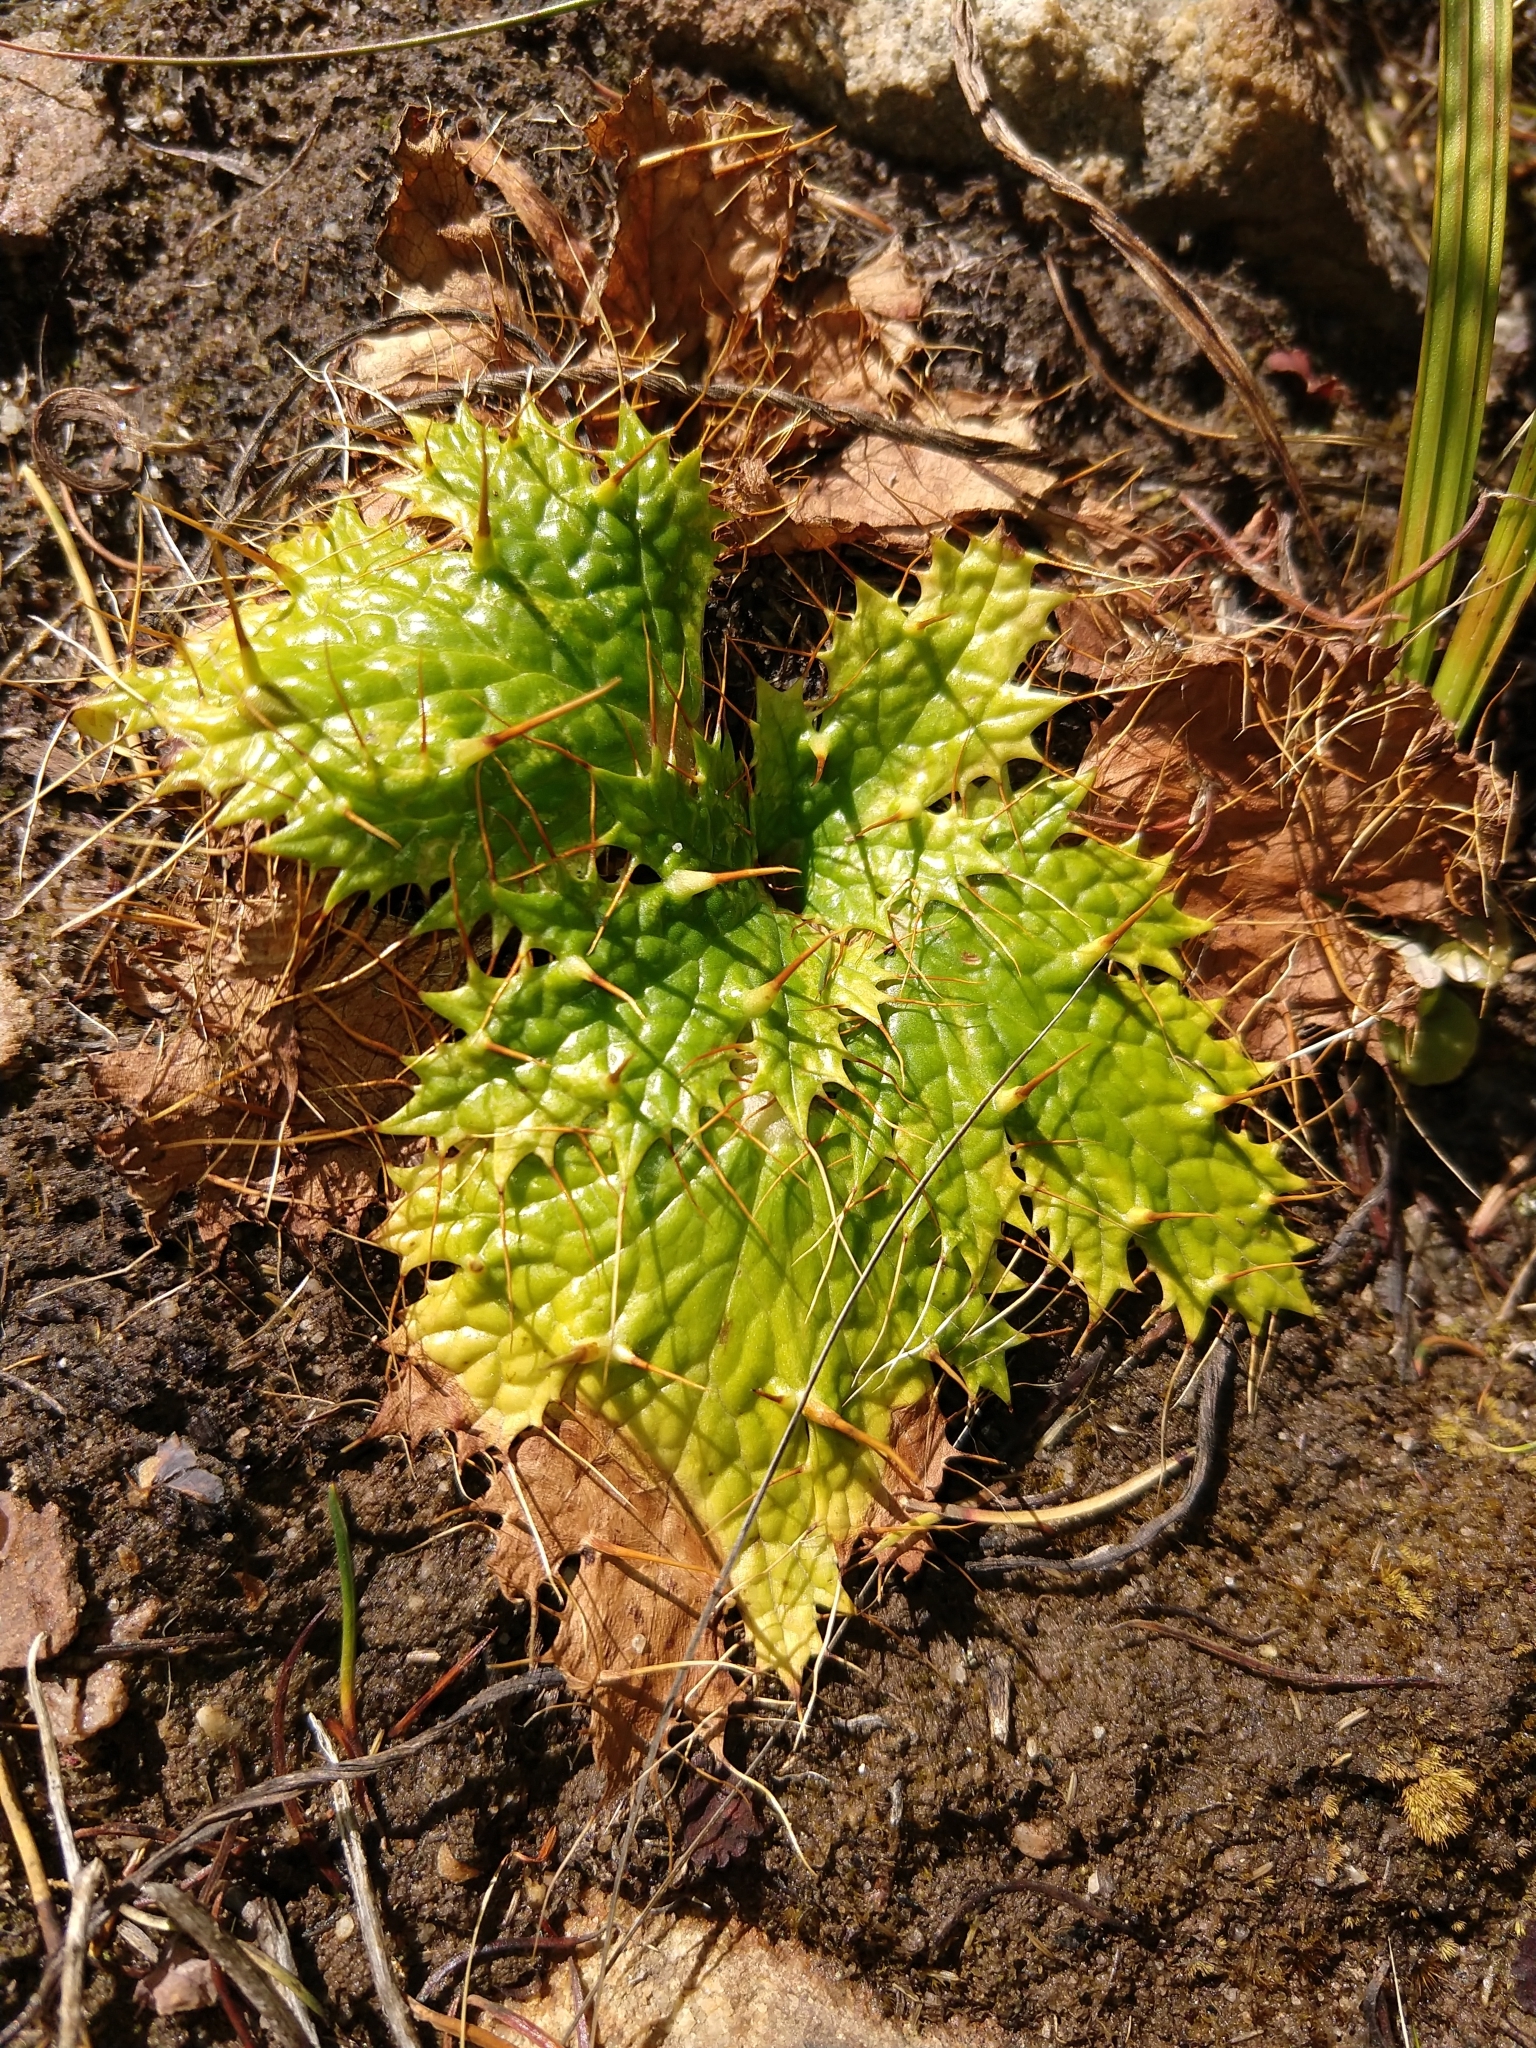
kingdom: Plantae
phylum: Tracheophyta
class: Magnoliopsida
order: Apiales
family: Apiaceae
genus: Arctopus
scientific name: Arctopus echinatus
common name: Platdoring
